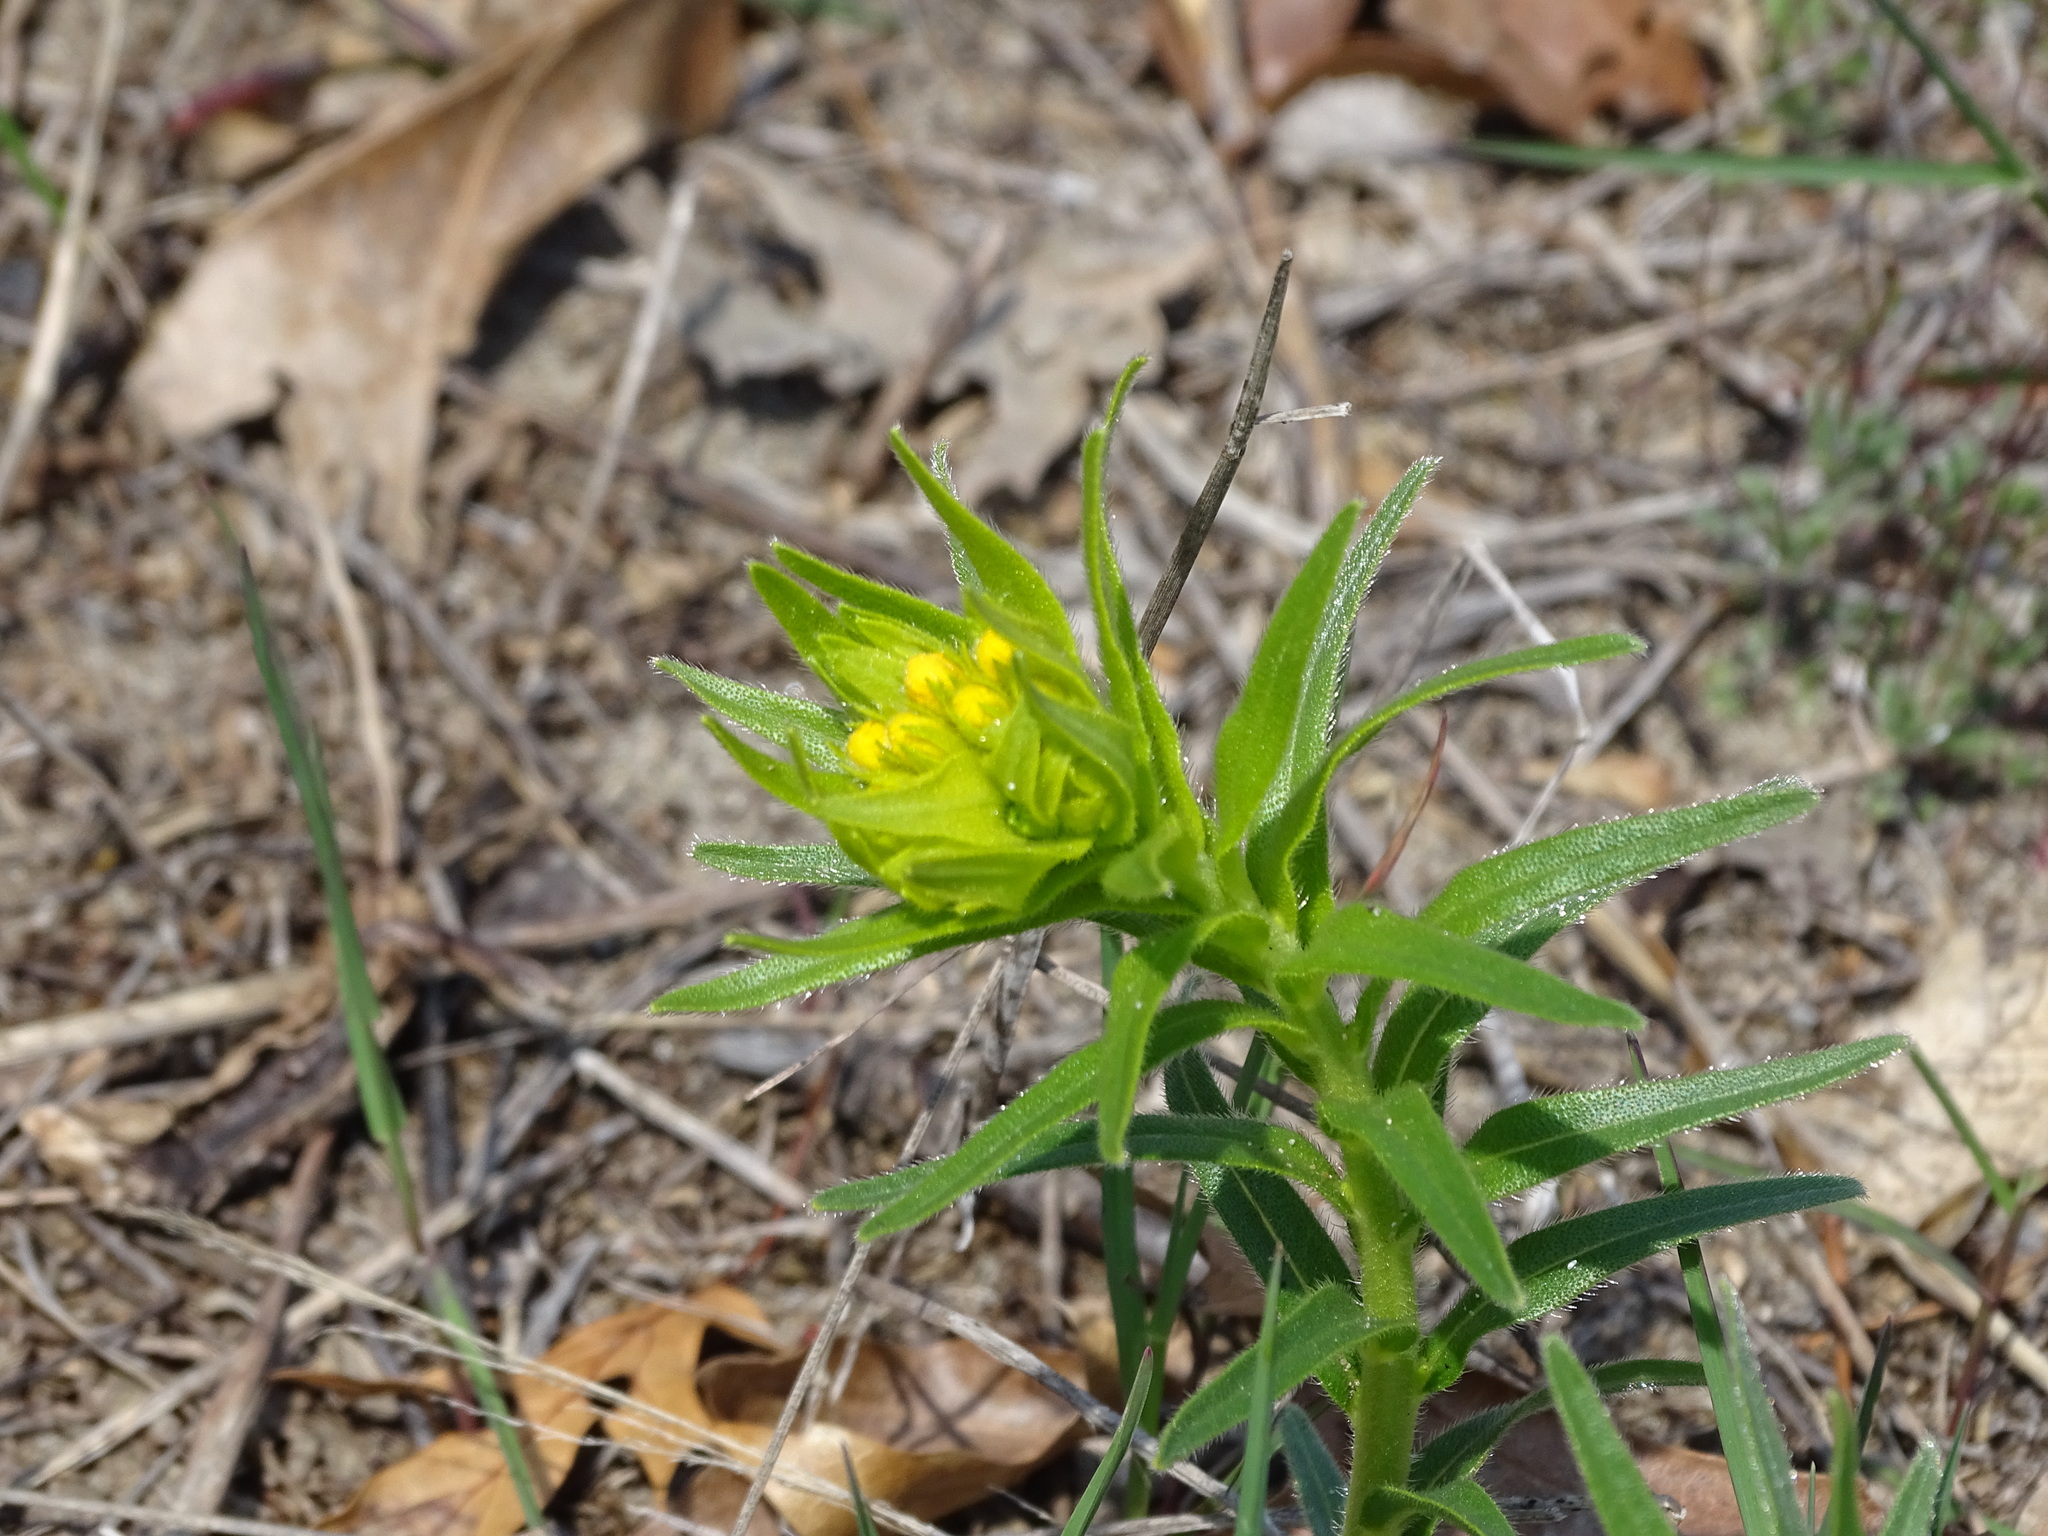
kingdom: Plantae
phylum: Tracheophyta
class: Magnoliopsida
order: Boraginales
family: Boraginaceae
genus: Lithospermum
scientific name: Lithospermum caroliniense
